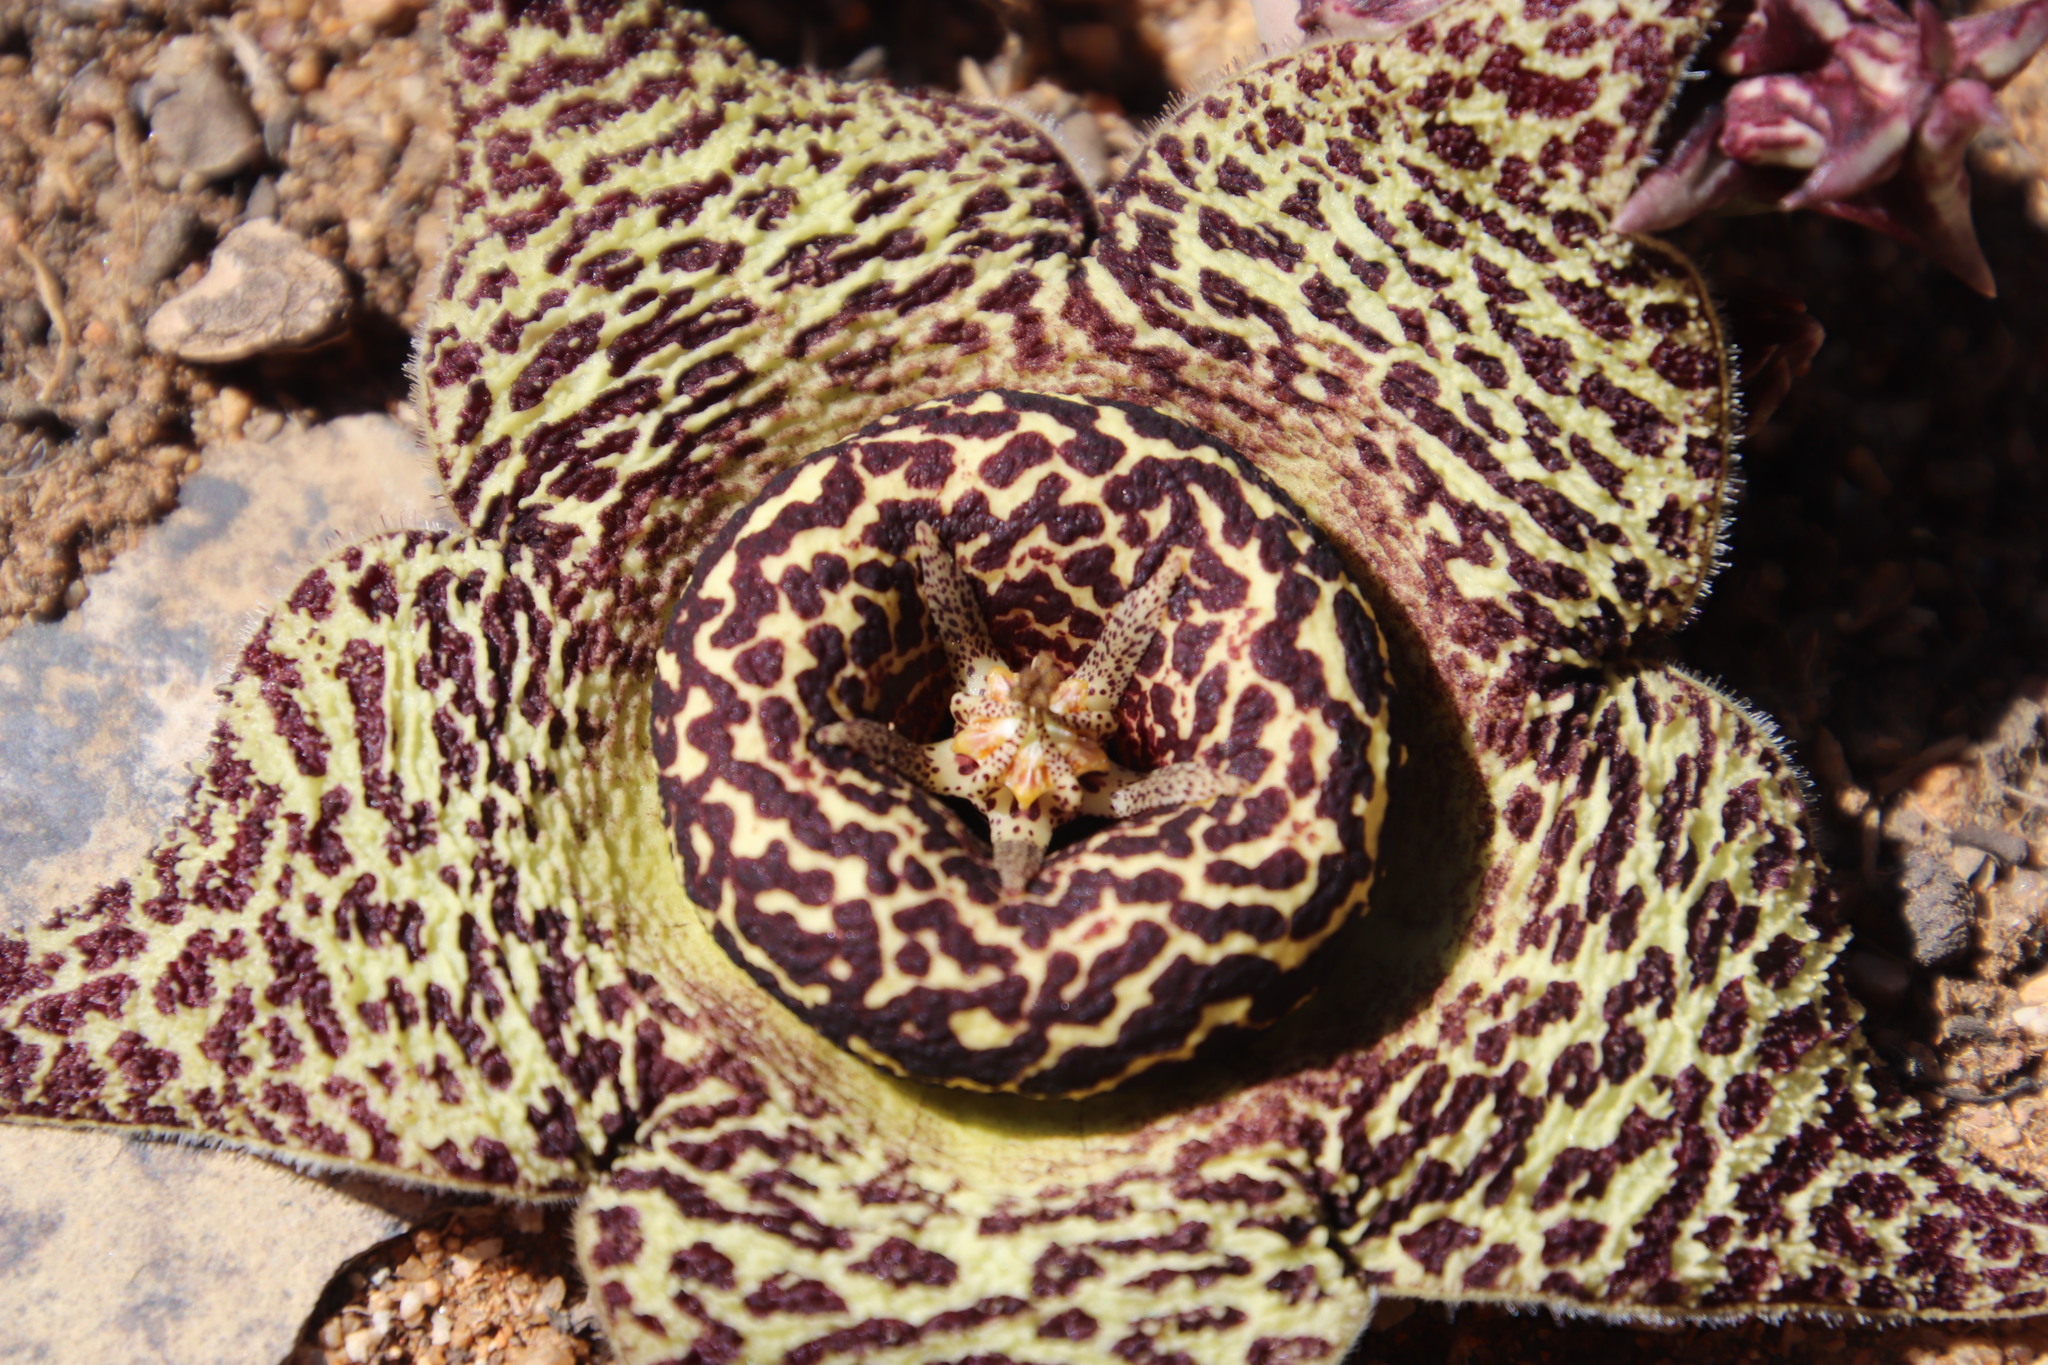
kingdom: Plantae
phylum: Tracheophyta
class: Magnoliopsida
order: Gentianales
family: Apocynaceae
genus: Ceropegia
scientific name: Ceropegia namaquana
